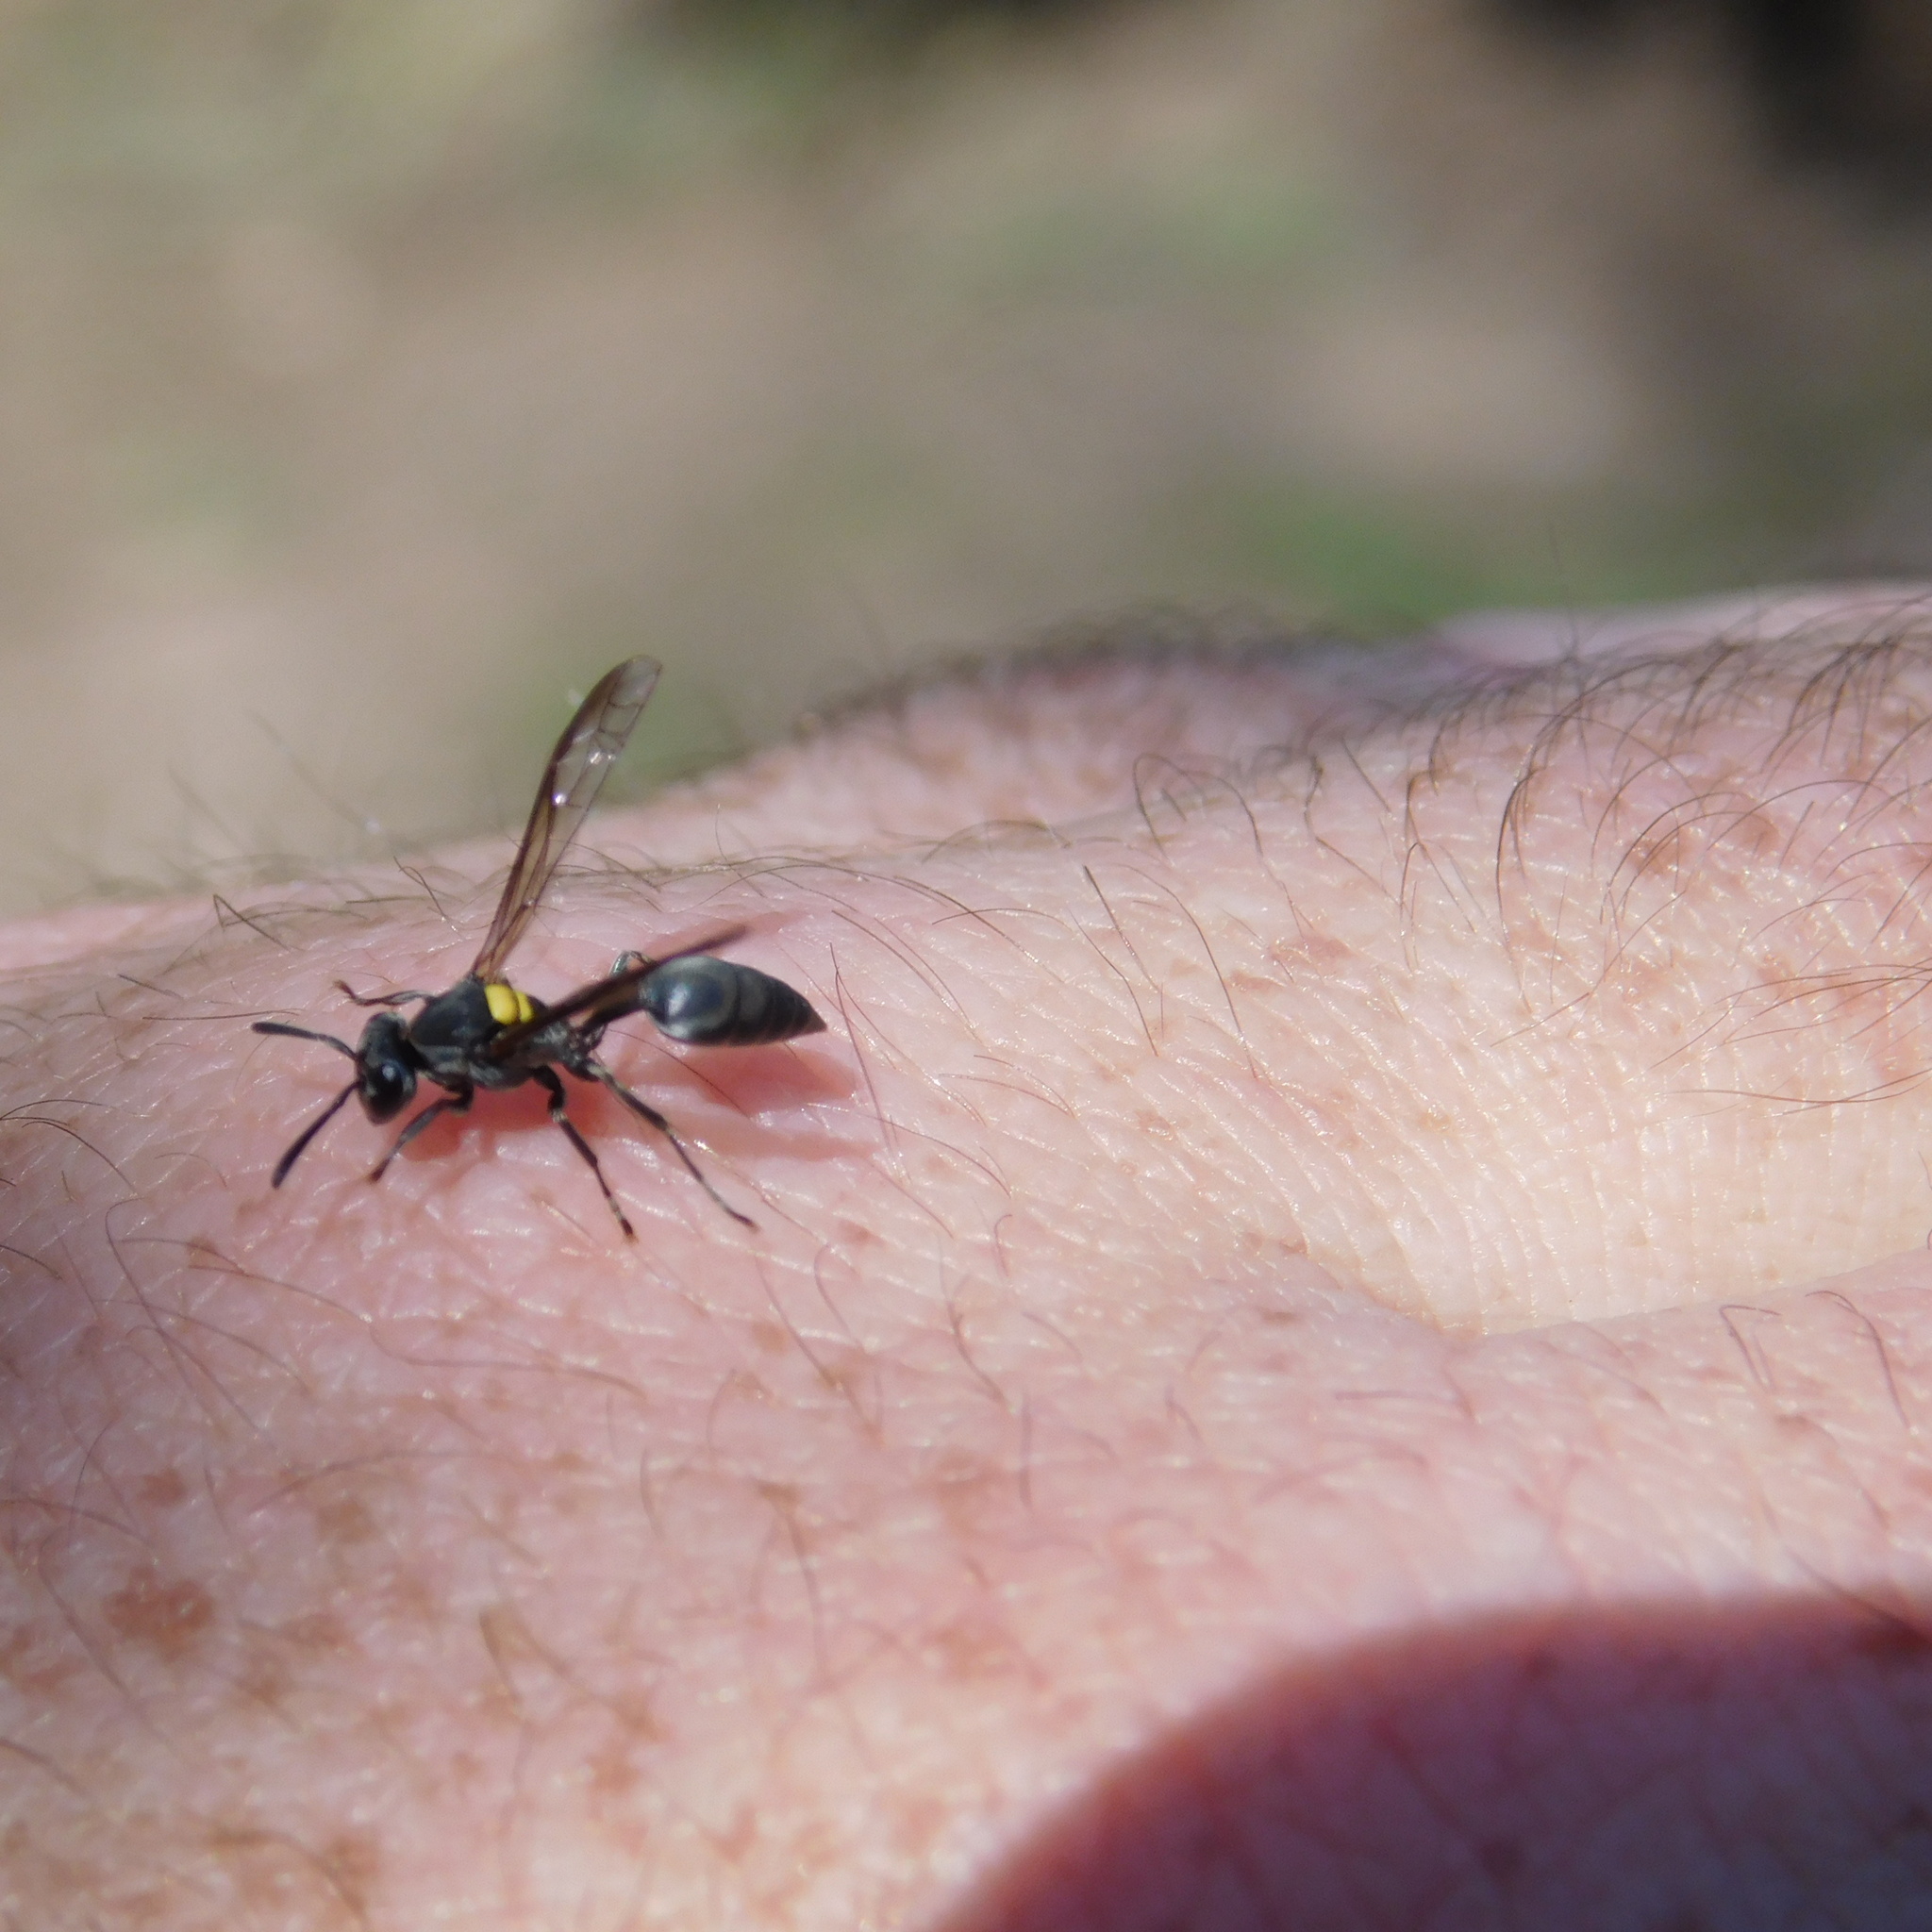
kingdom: Animalia
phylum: Arthropoda
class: Insecta
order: Hymenoptera
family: Eumenidae
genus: Polybia
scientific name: Polybia scutellaris
